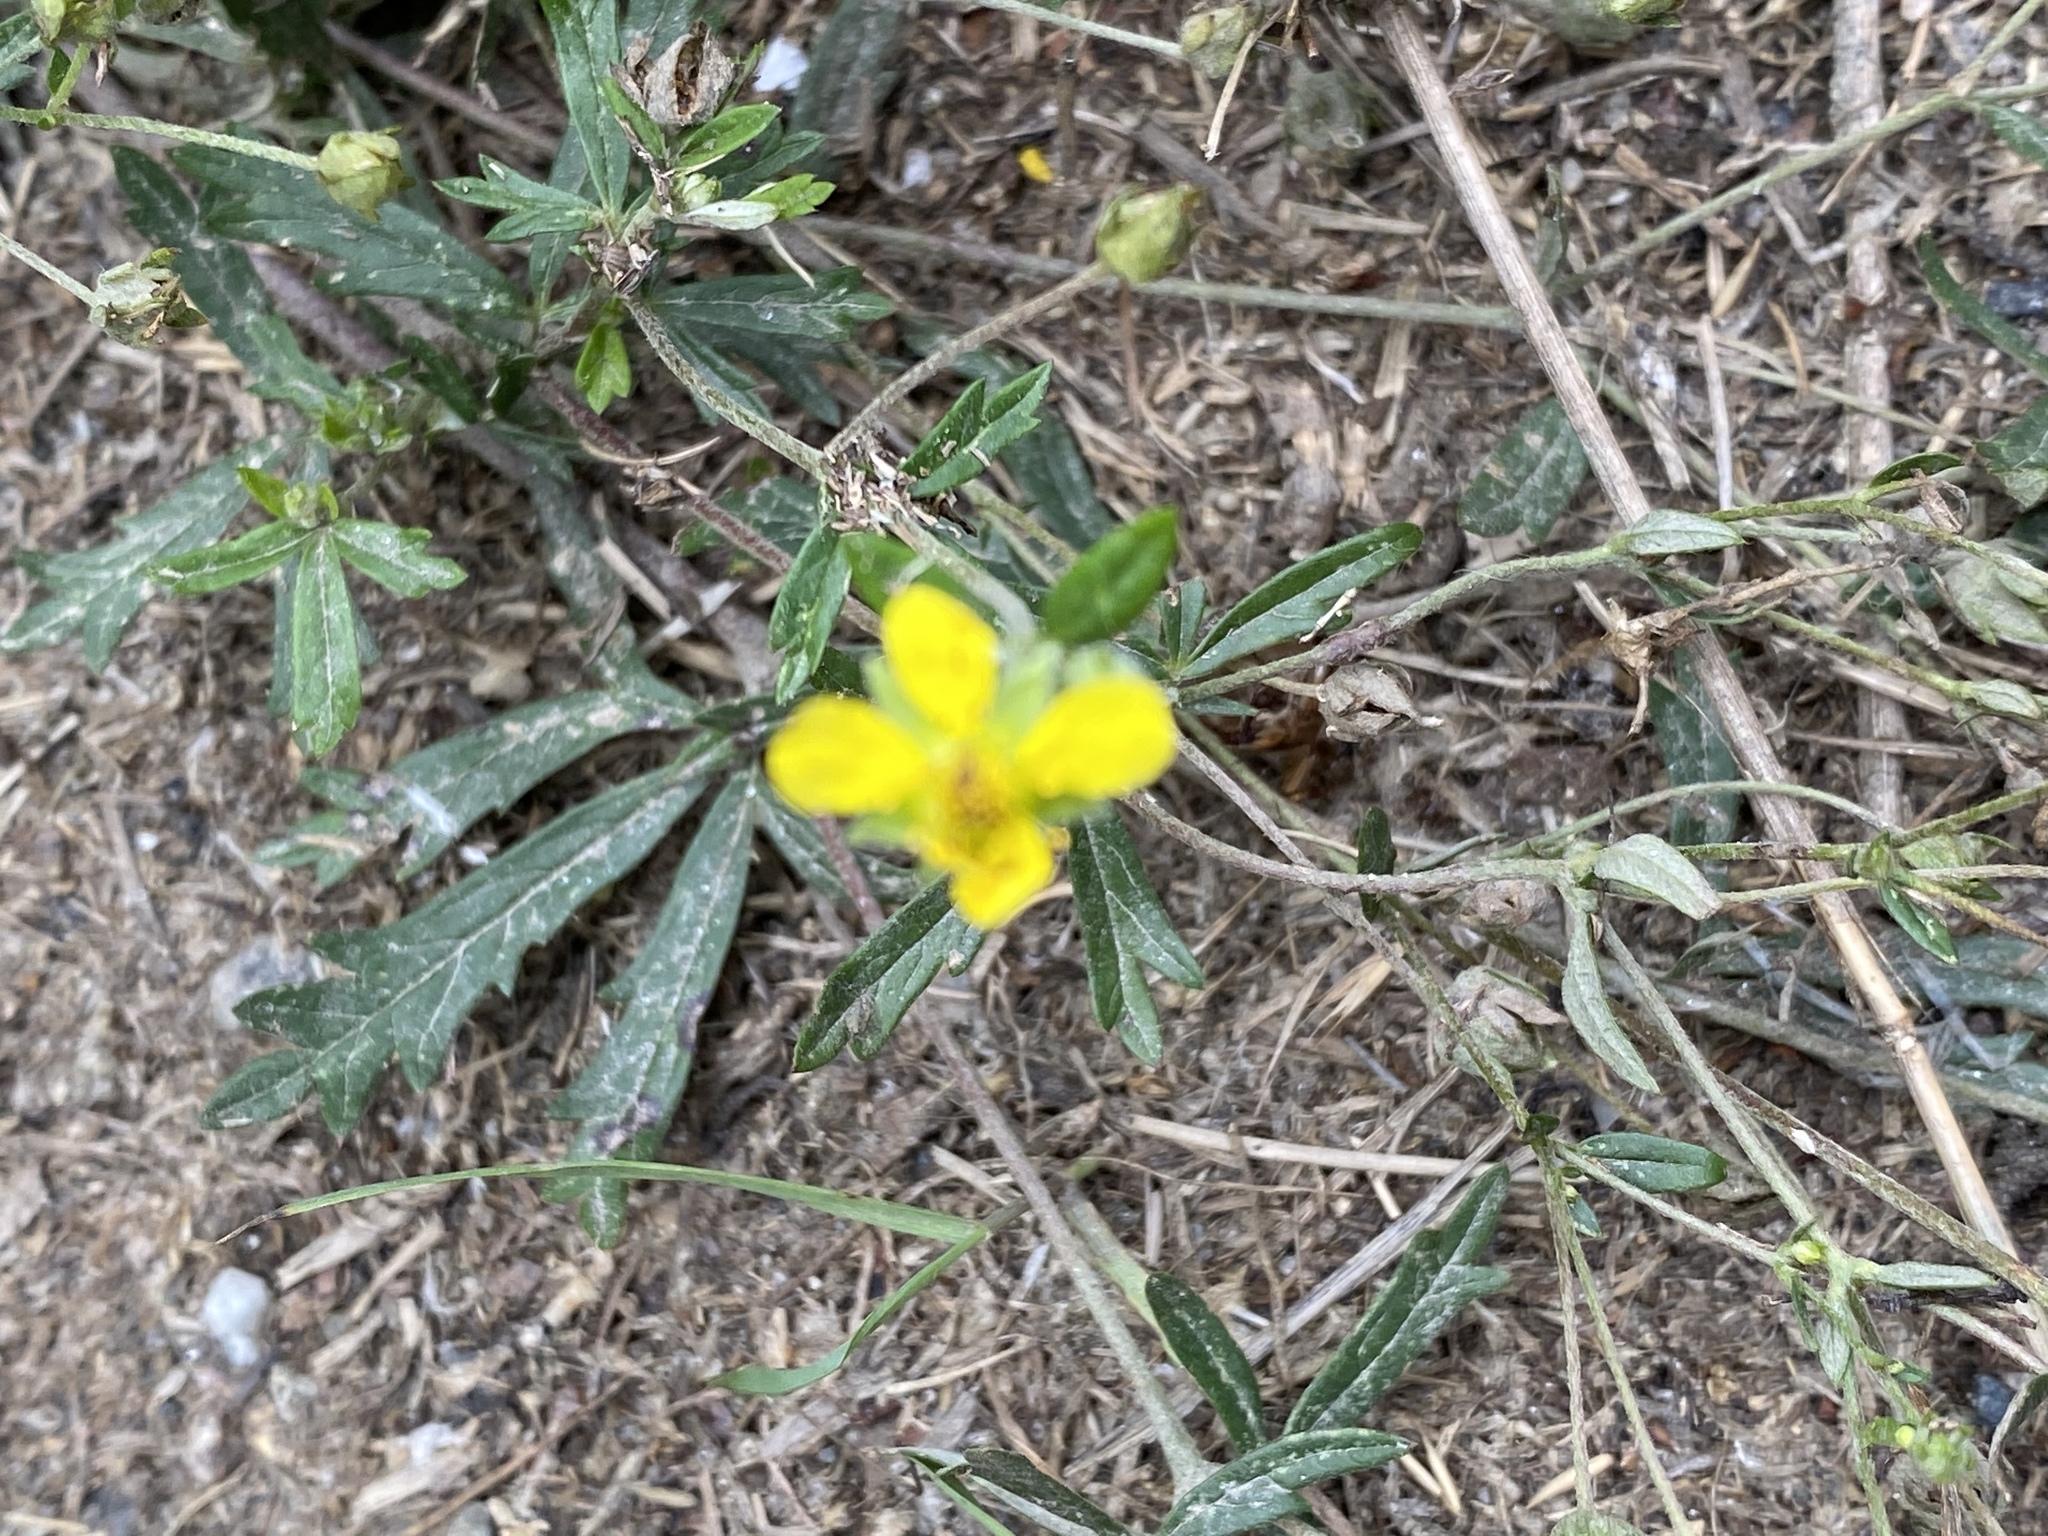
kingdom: Plantae
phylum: Tracheophyta
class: Magnoliopsida
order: Rosales
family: Rosaceae
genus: Potentilla
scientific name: Potentilla argentea
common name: Hoary cinquefoil
